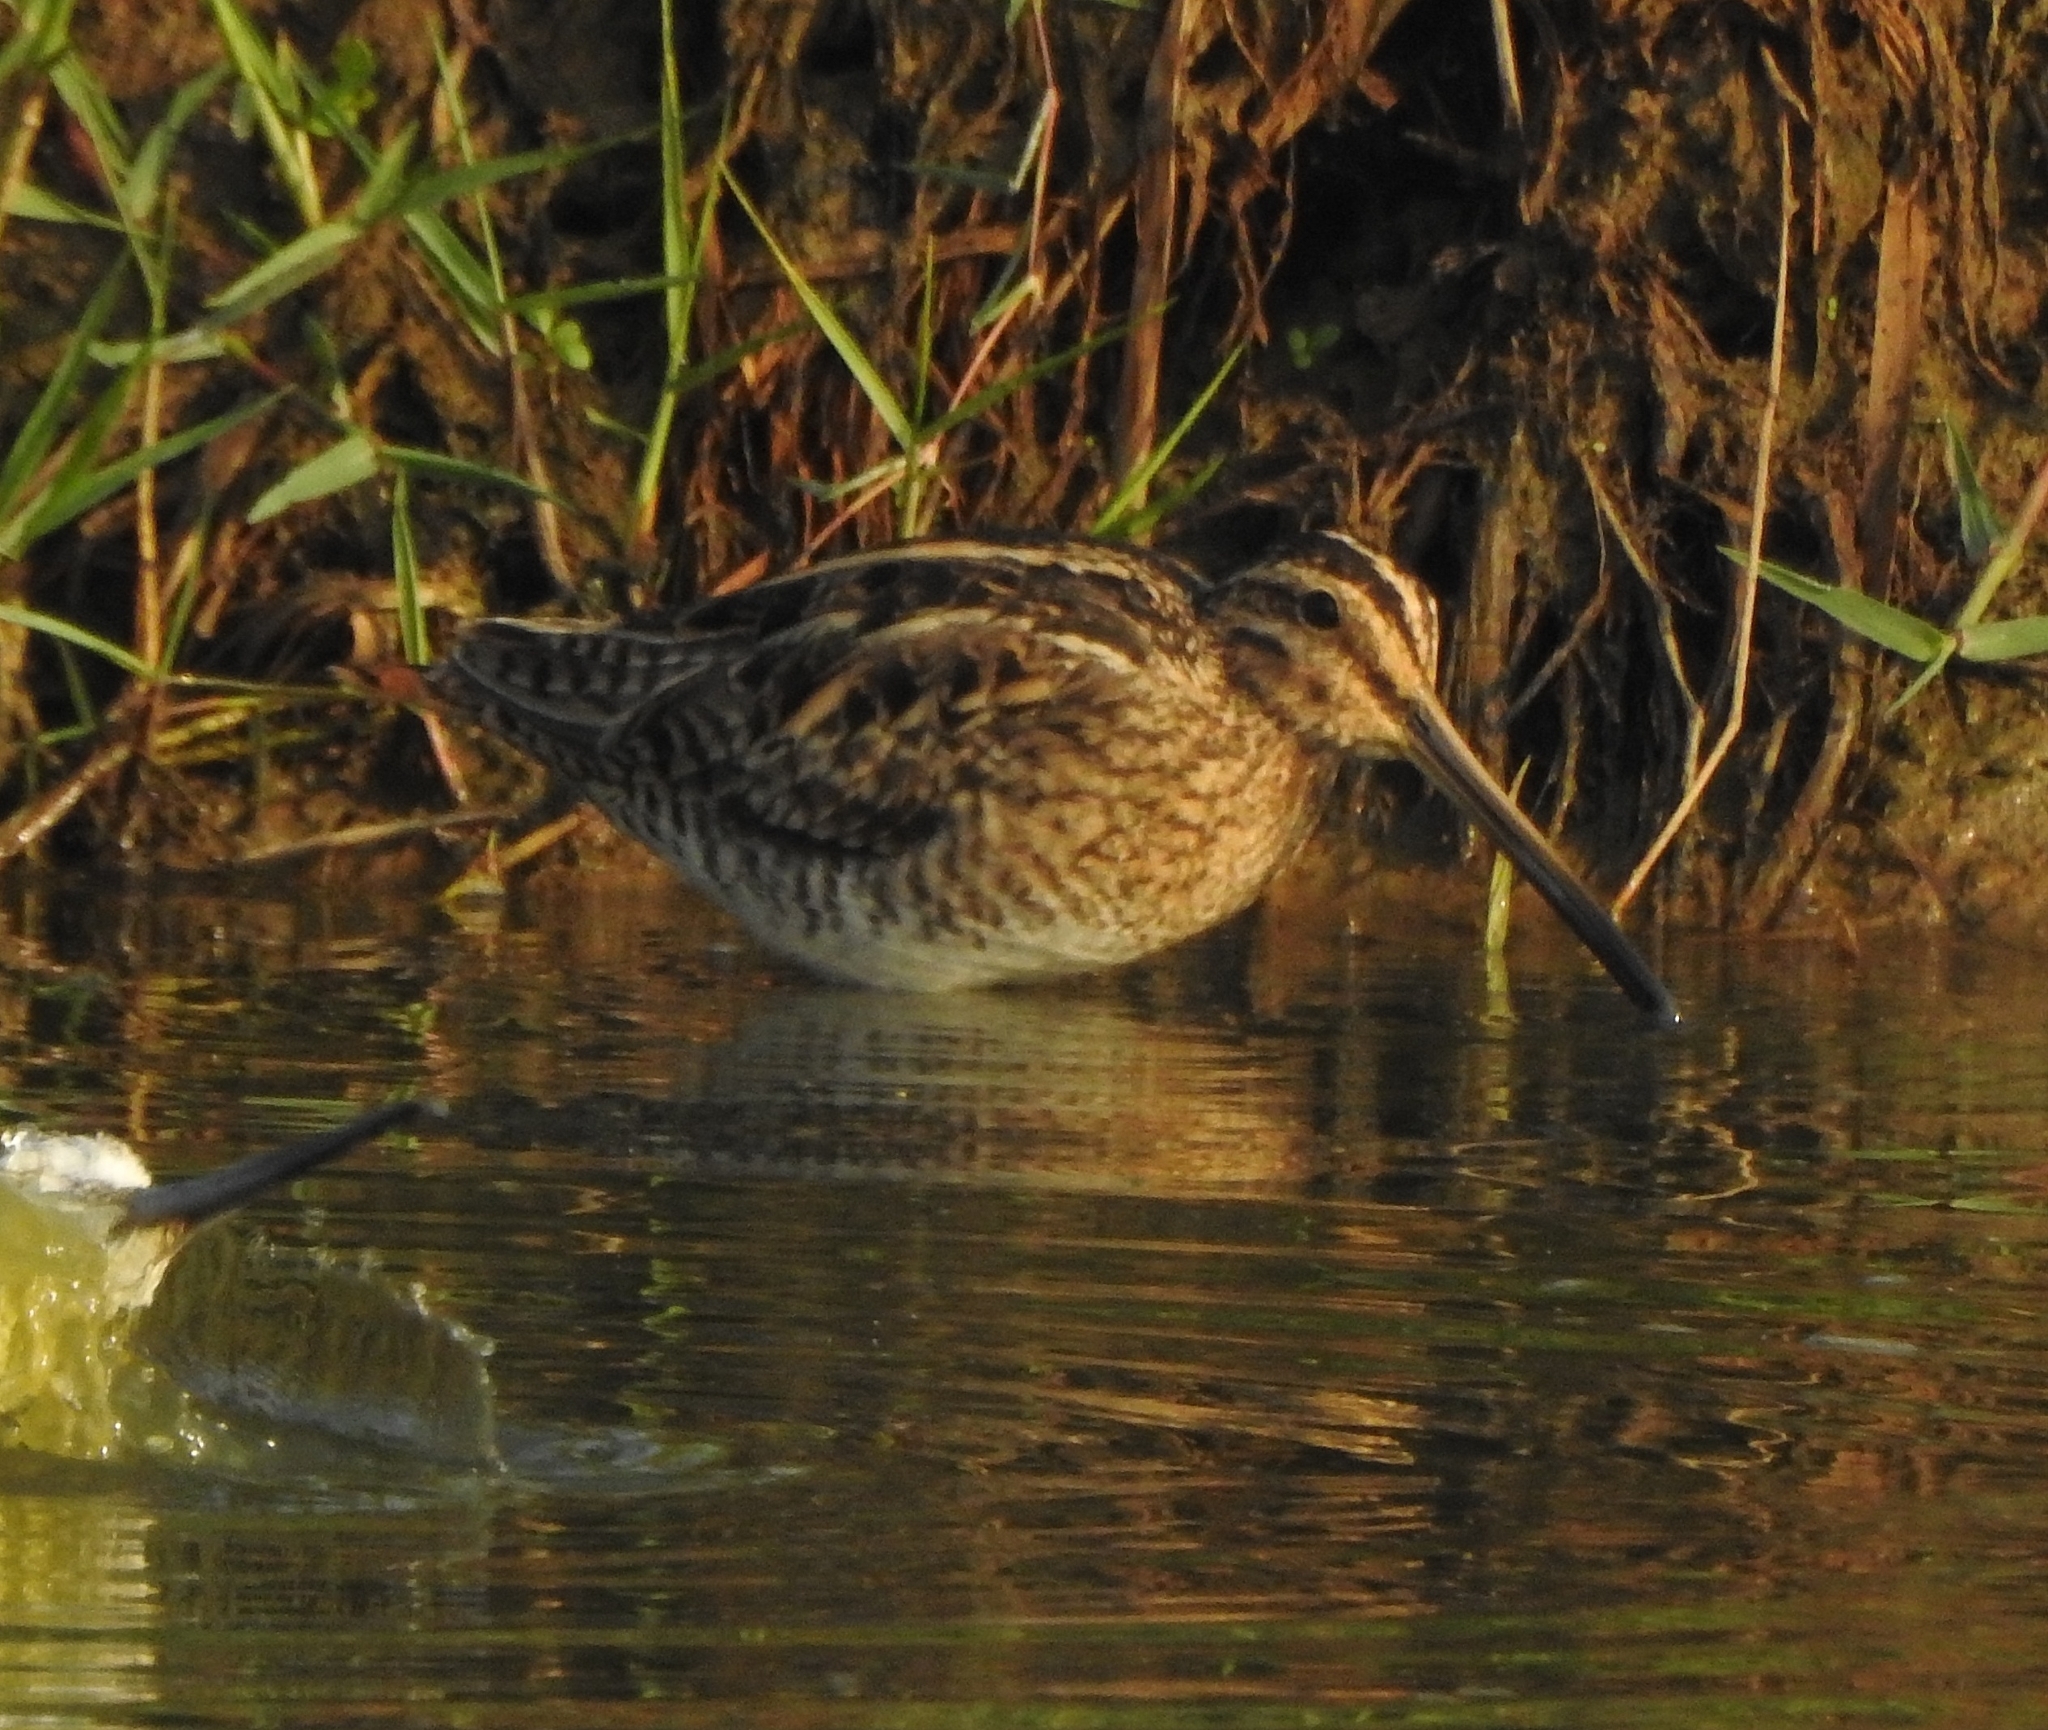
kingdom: Animalia
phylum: Chordata
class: Aves
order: Charadriiformes
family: Scolopacidae
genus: Gallinago
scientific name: Gallinago gallinago
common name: Common snipe
